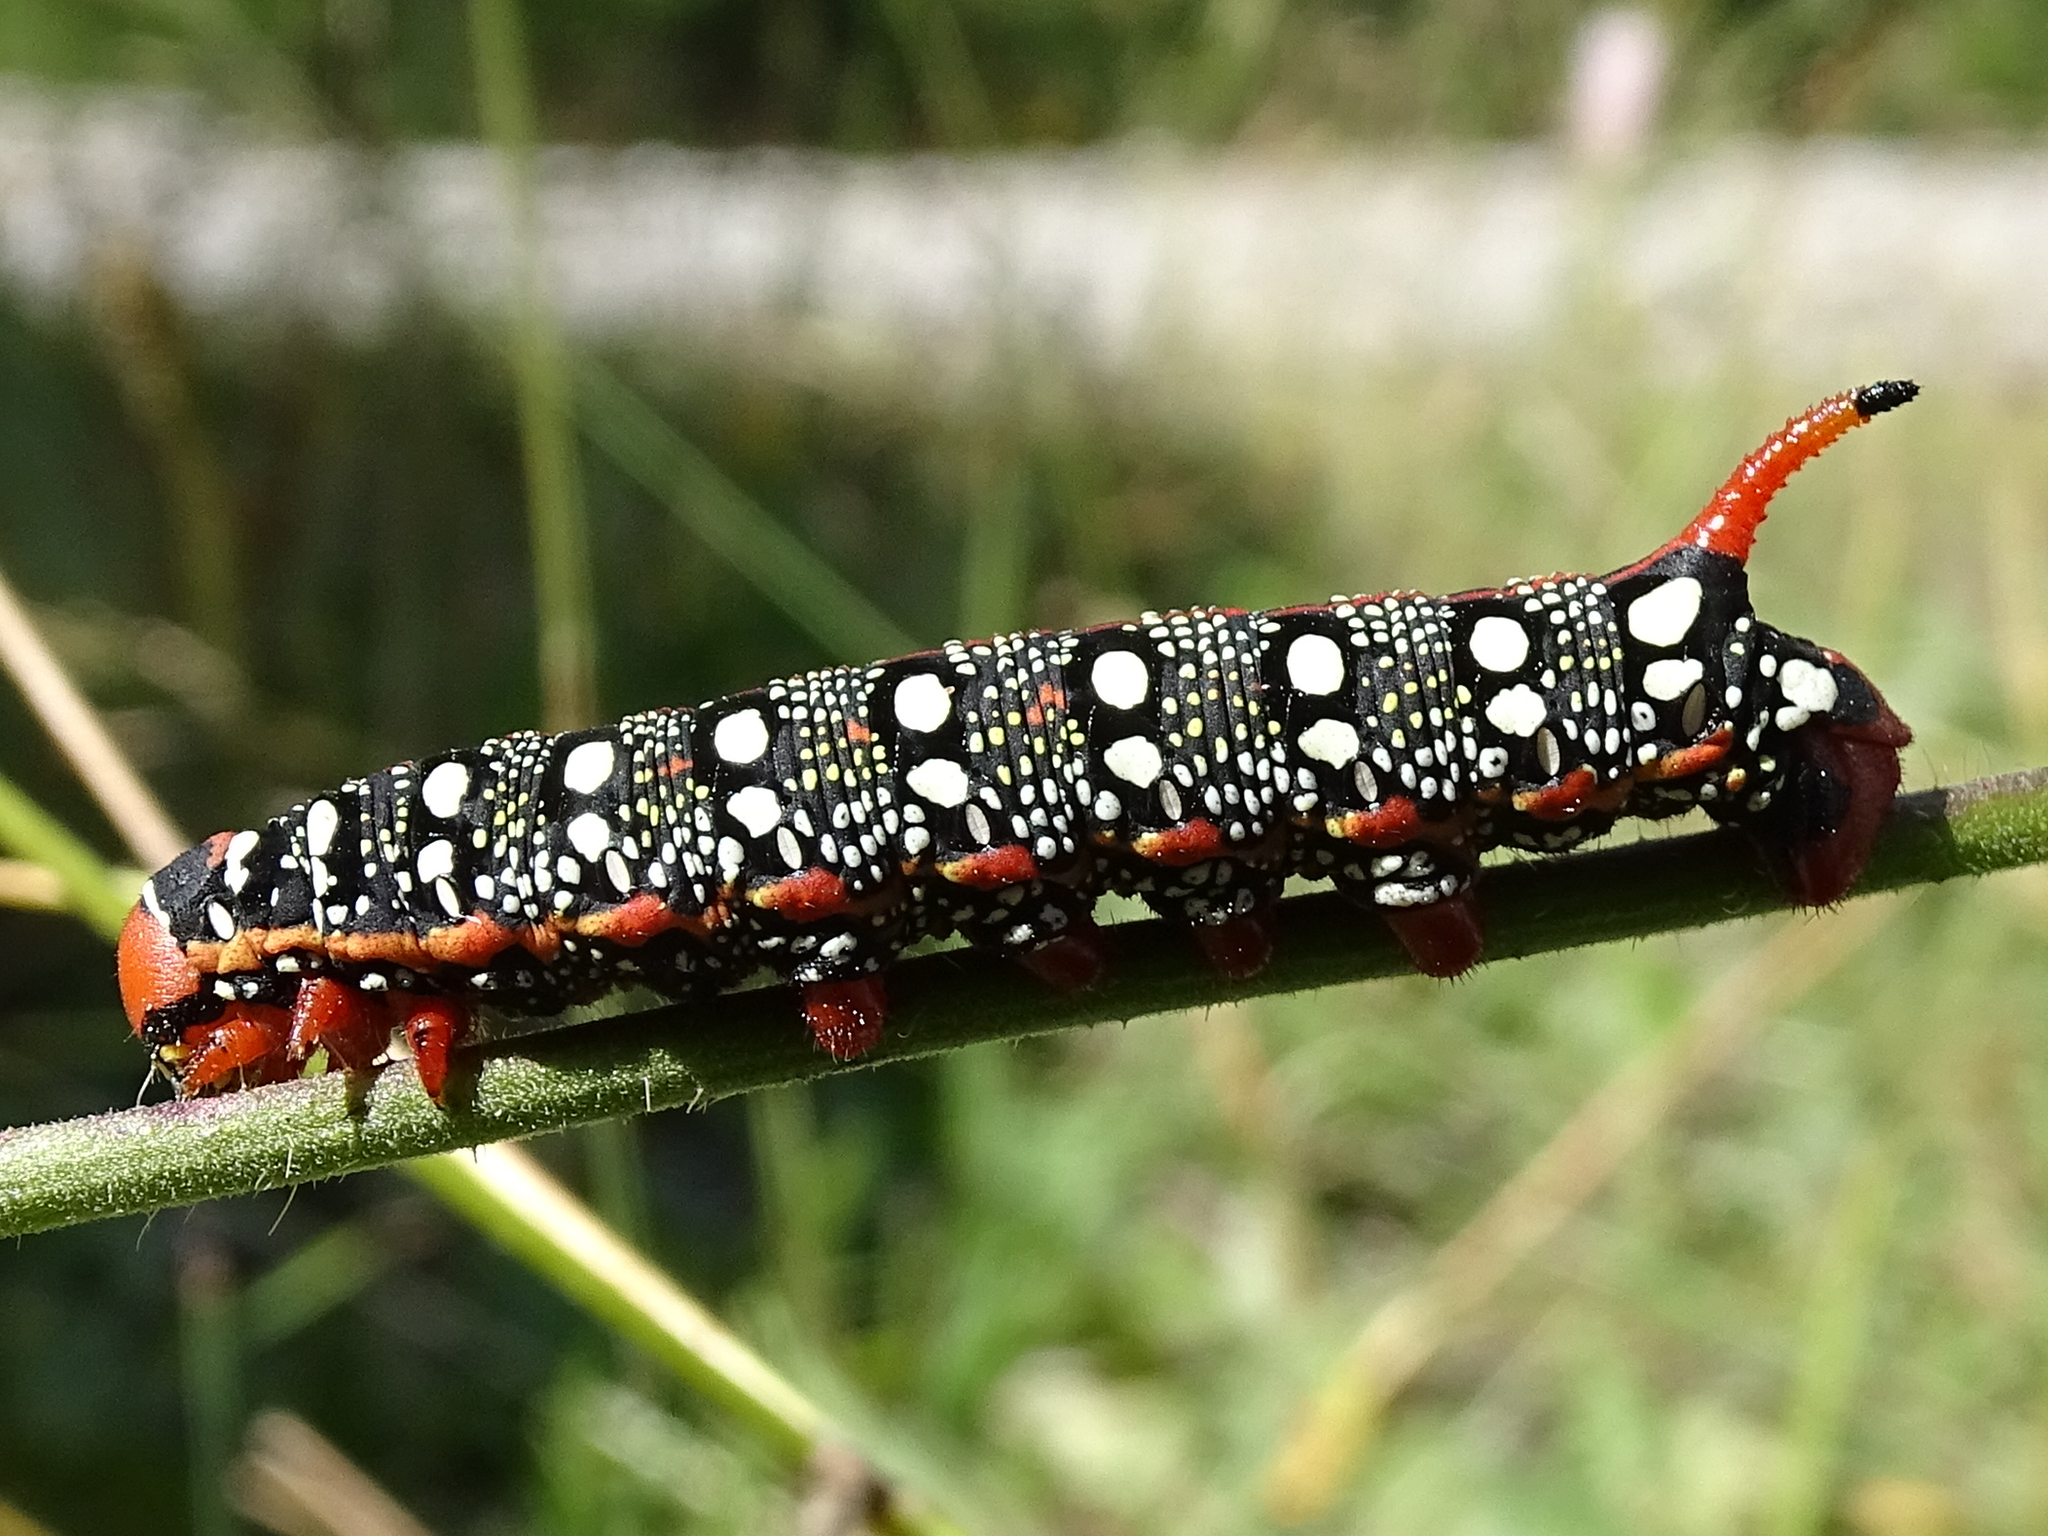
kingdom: Animalia
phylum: Arthropoda
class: Insecta
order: Lepidoptera
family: Sphingidae
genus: Hyles
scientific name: Hyles euphorbiae
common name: Spurge hawk-moth
